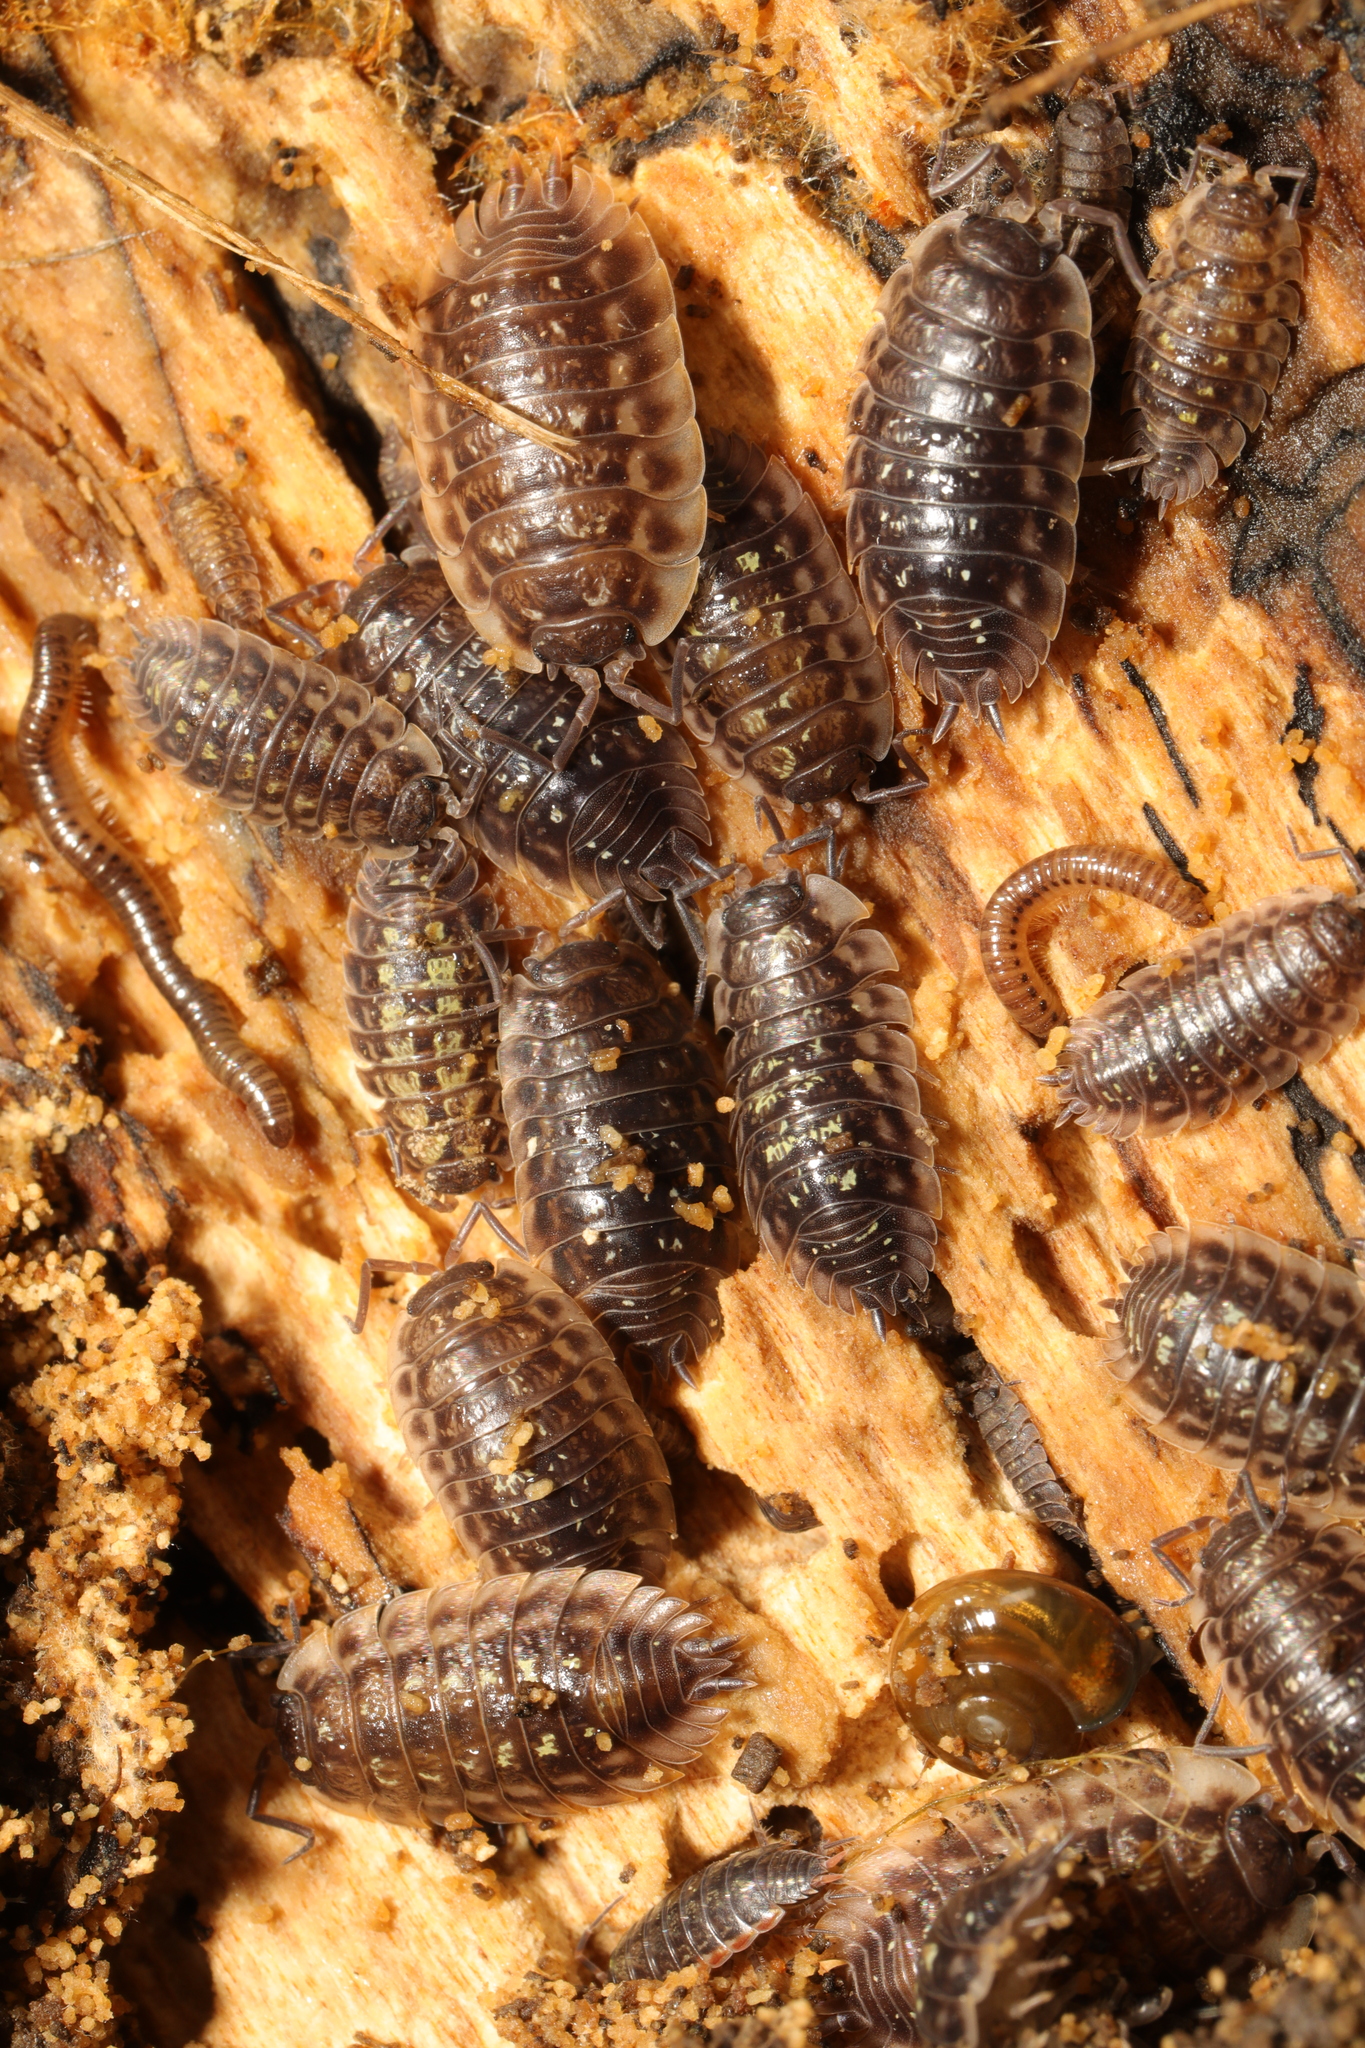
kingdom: Animalia
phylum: Arthropoda
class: Malacostraca
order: Isopoda
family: Oniscidae
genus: Oniscus
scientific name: Oniscus asellus
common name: Common shiny woodlouse
